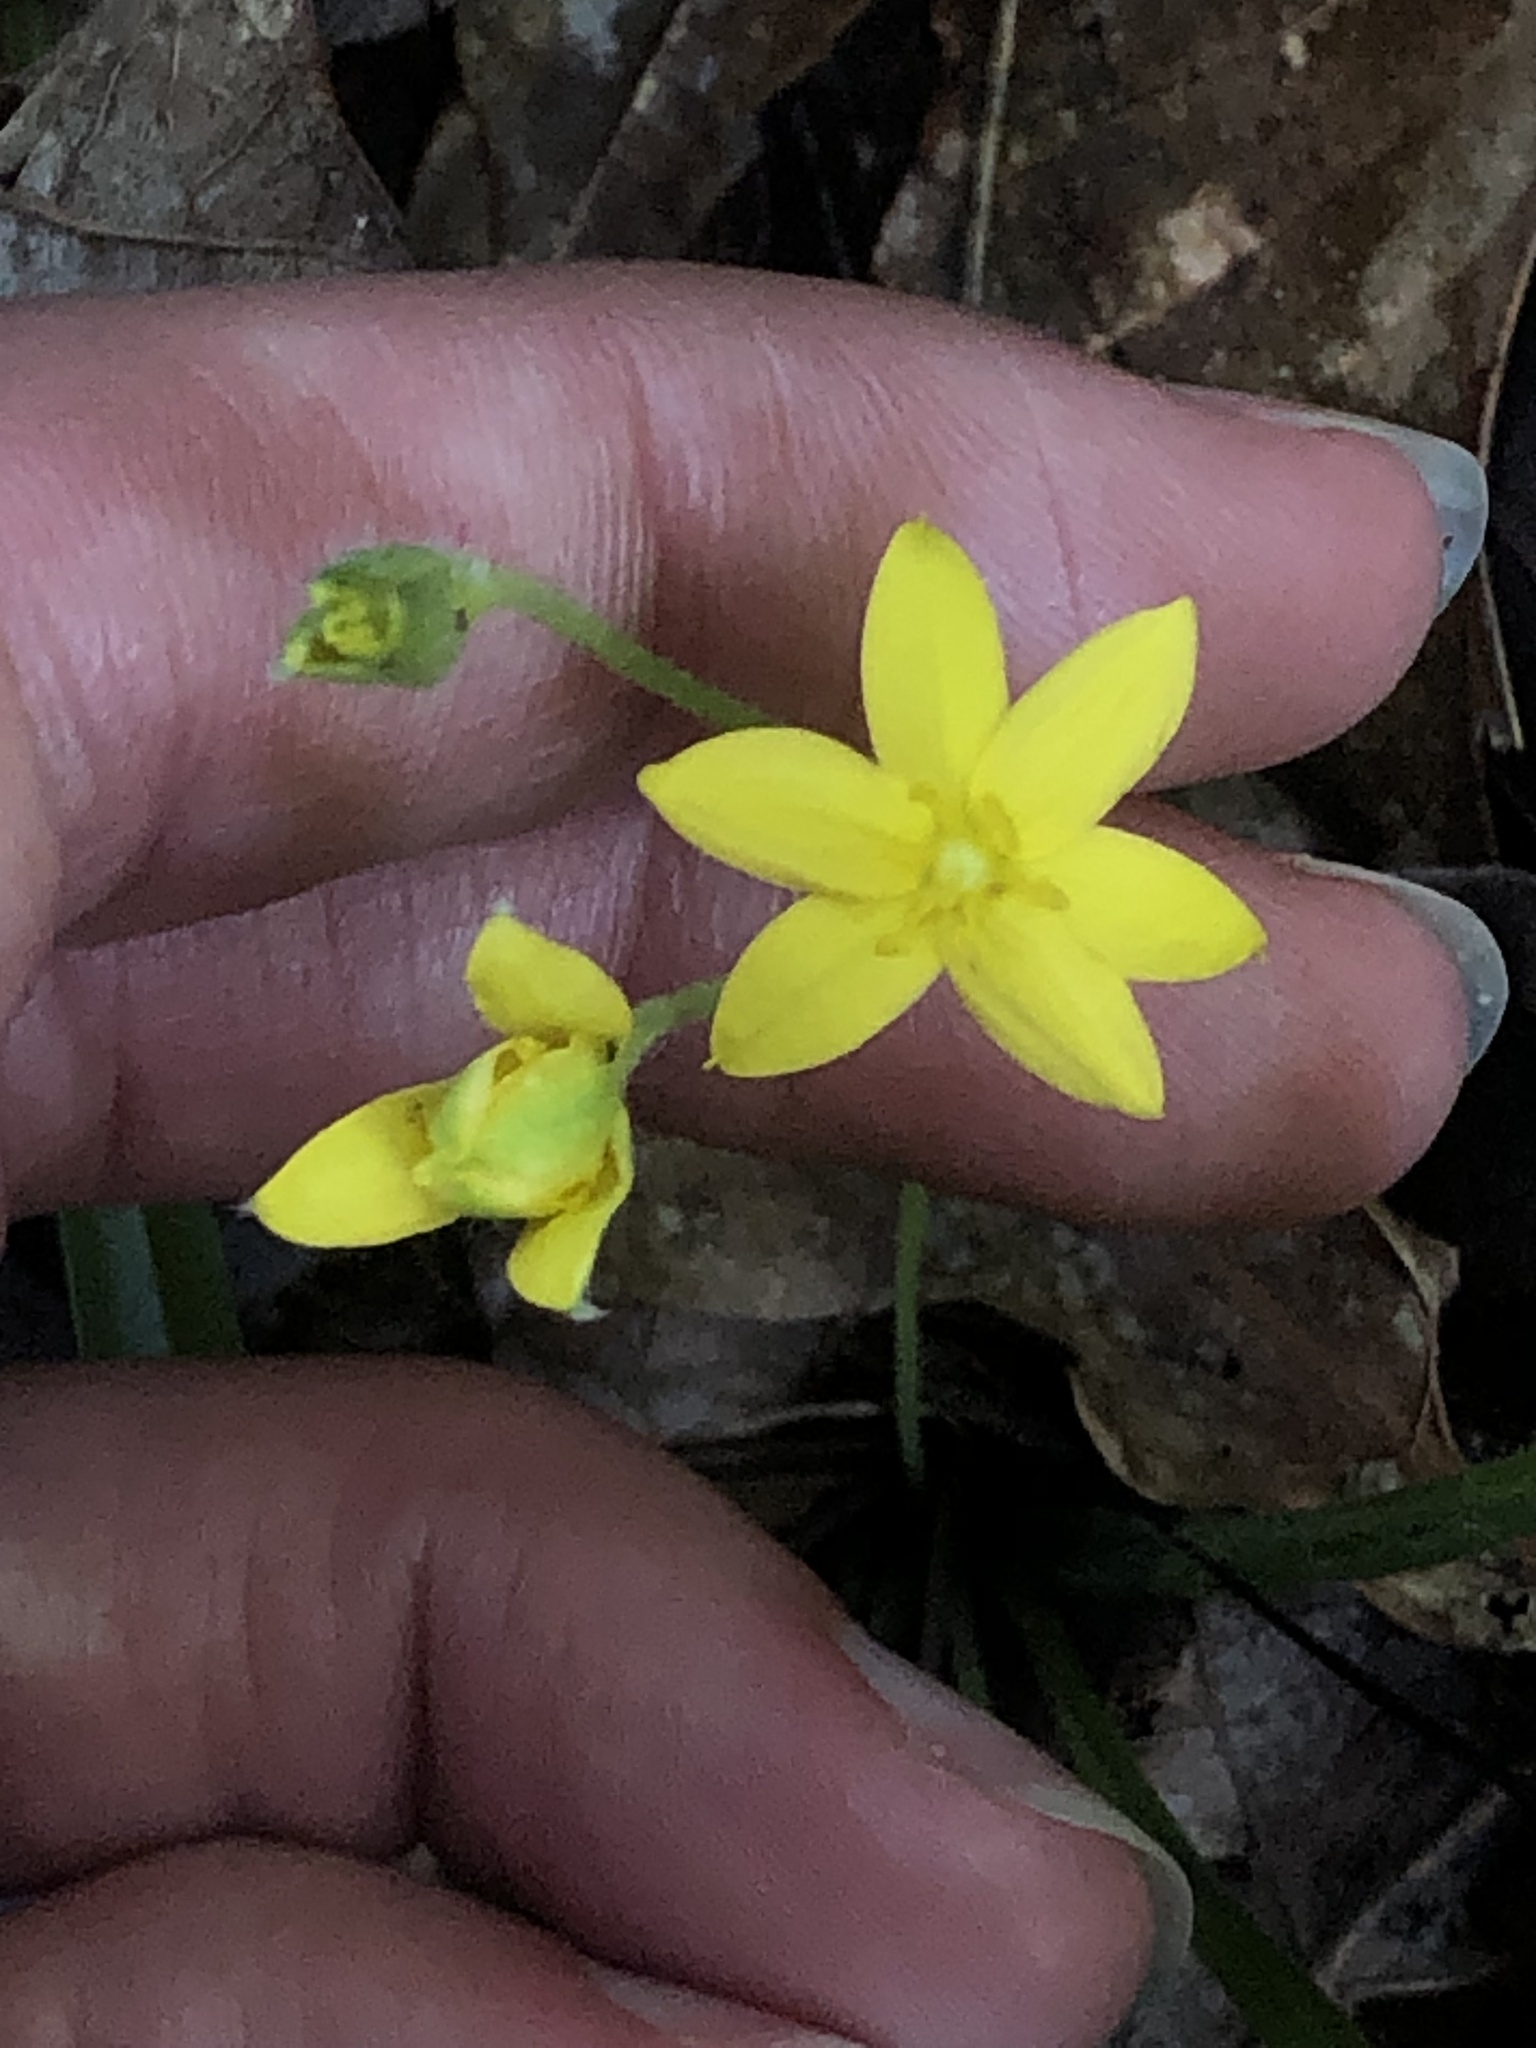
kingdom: Plantae
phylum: Tracheophyta
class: Liliopsida
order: Asparagales
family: Hypoxidaceae
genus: Hypoxis
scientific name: Hypoxis hirsuta
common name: Common goldstar
